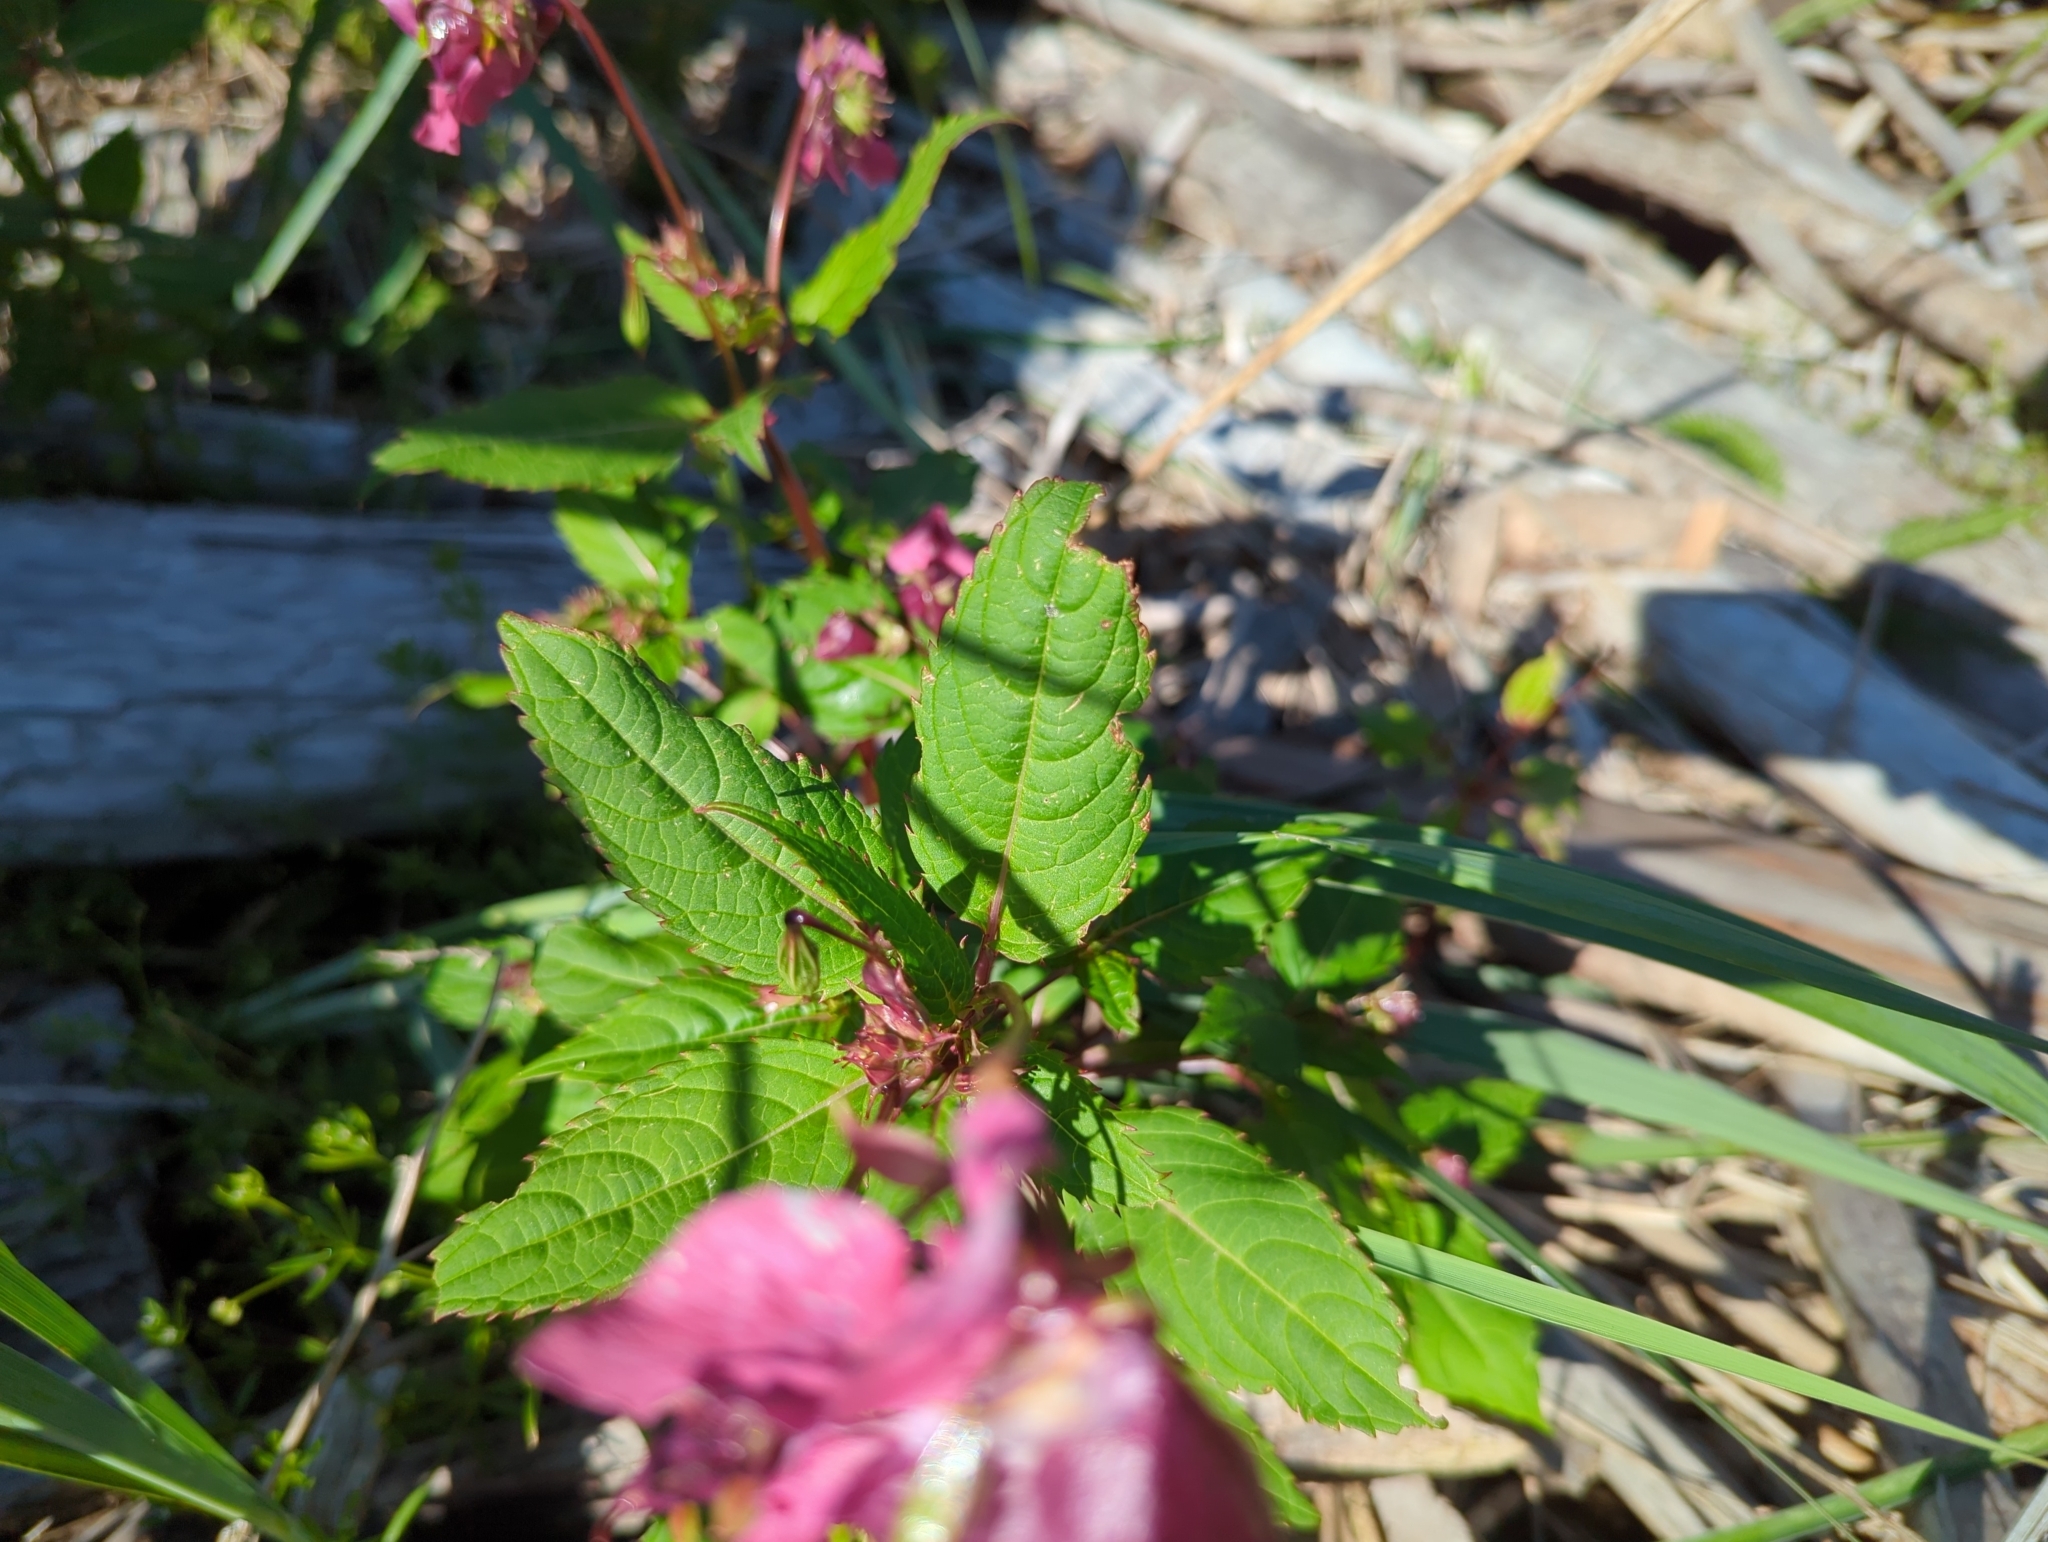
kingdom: Plantae
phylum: Tracheophyta
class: Magnoliopsida
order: Ericales
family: Balsaminaceae
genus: Impatiens
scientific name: Impatiens glandulifera
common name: Himalayan balsam
